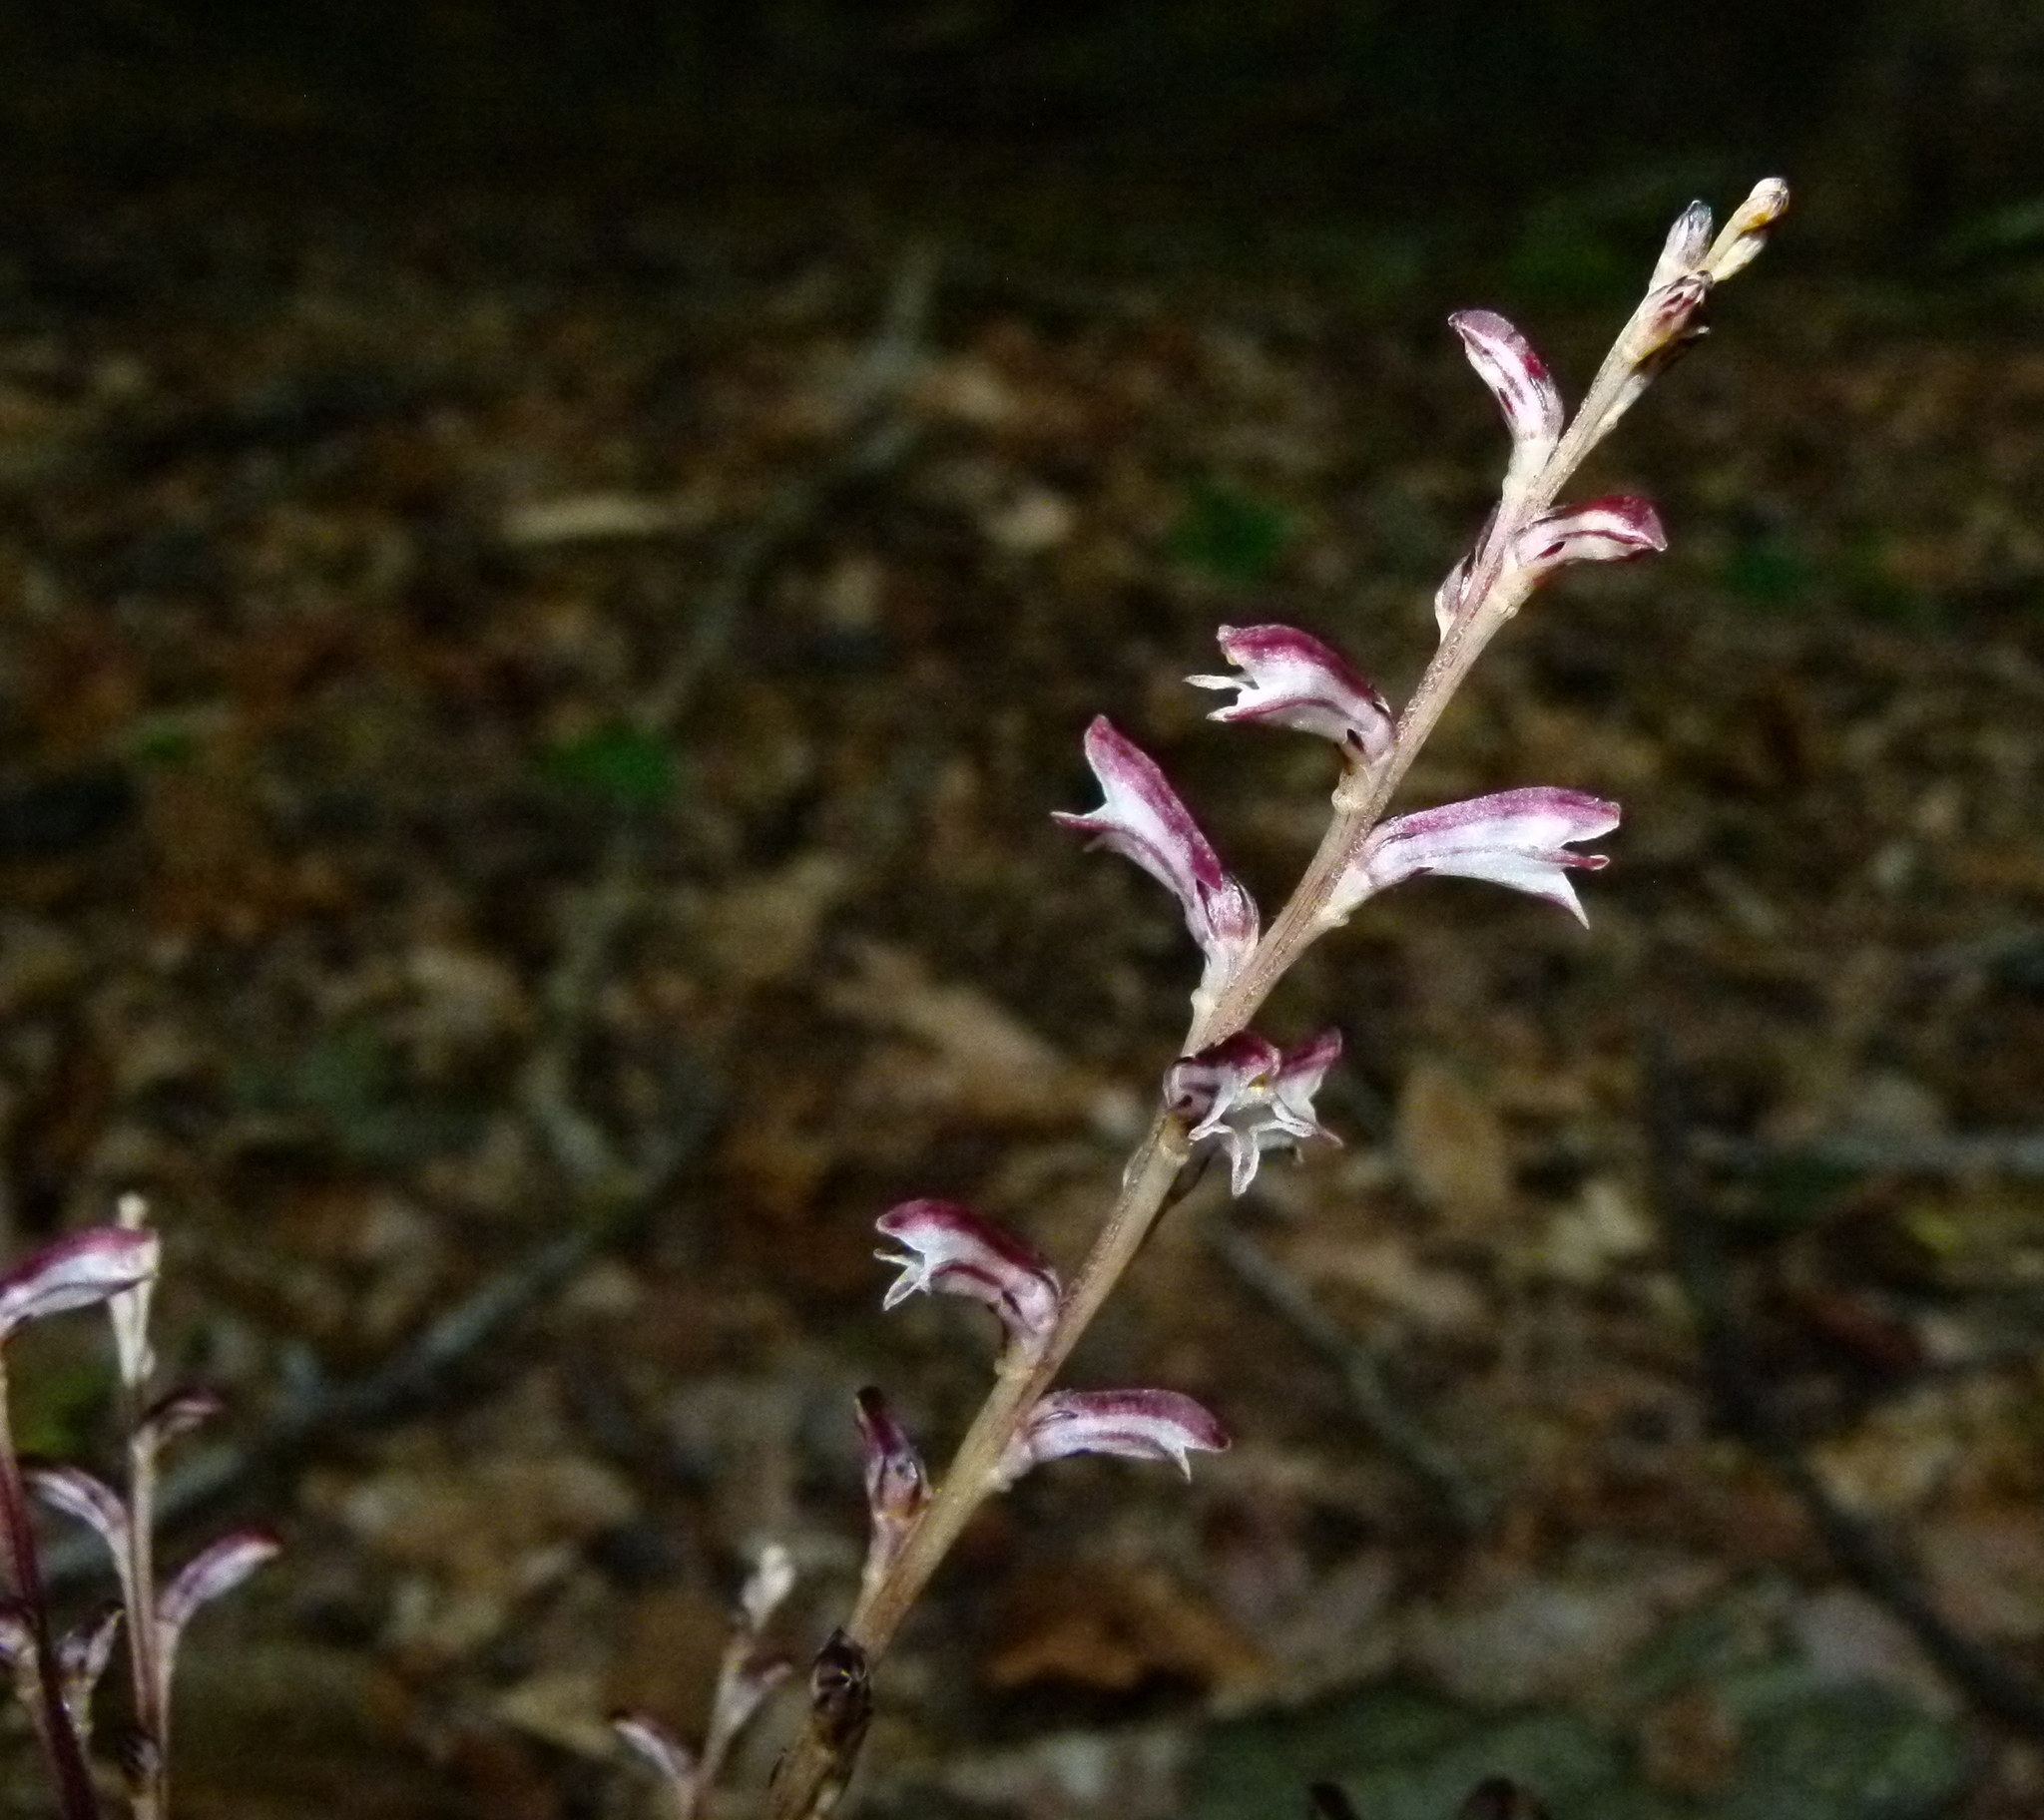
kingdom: Plantae
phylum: Tracheophyta
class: Magnoliopsida
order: Lamiales
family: Orobanchaceae
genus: Epifagus
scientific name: Epifagus virginiana
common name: Beechdrops
